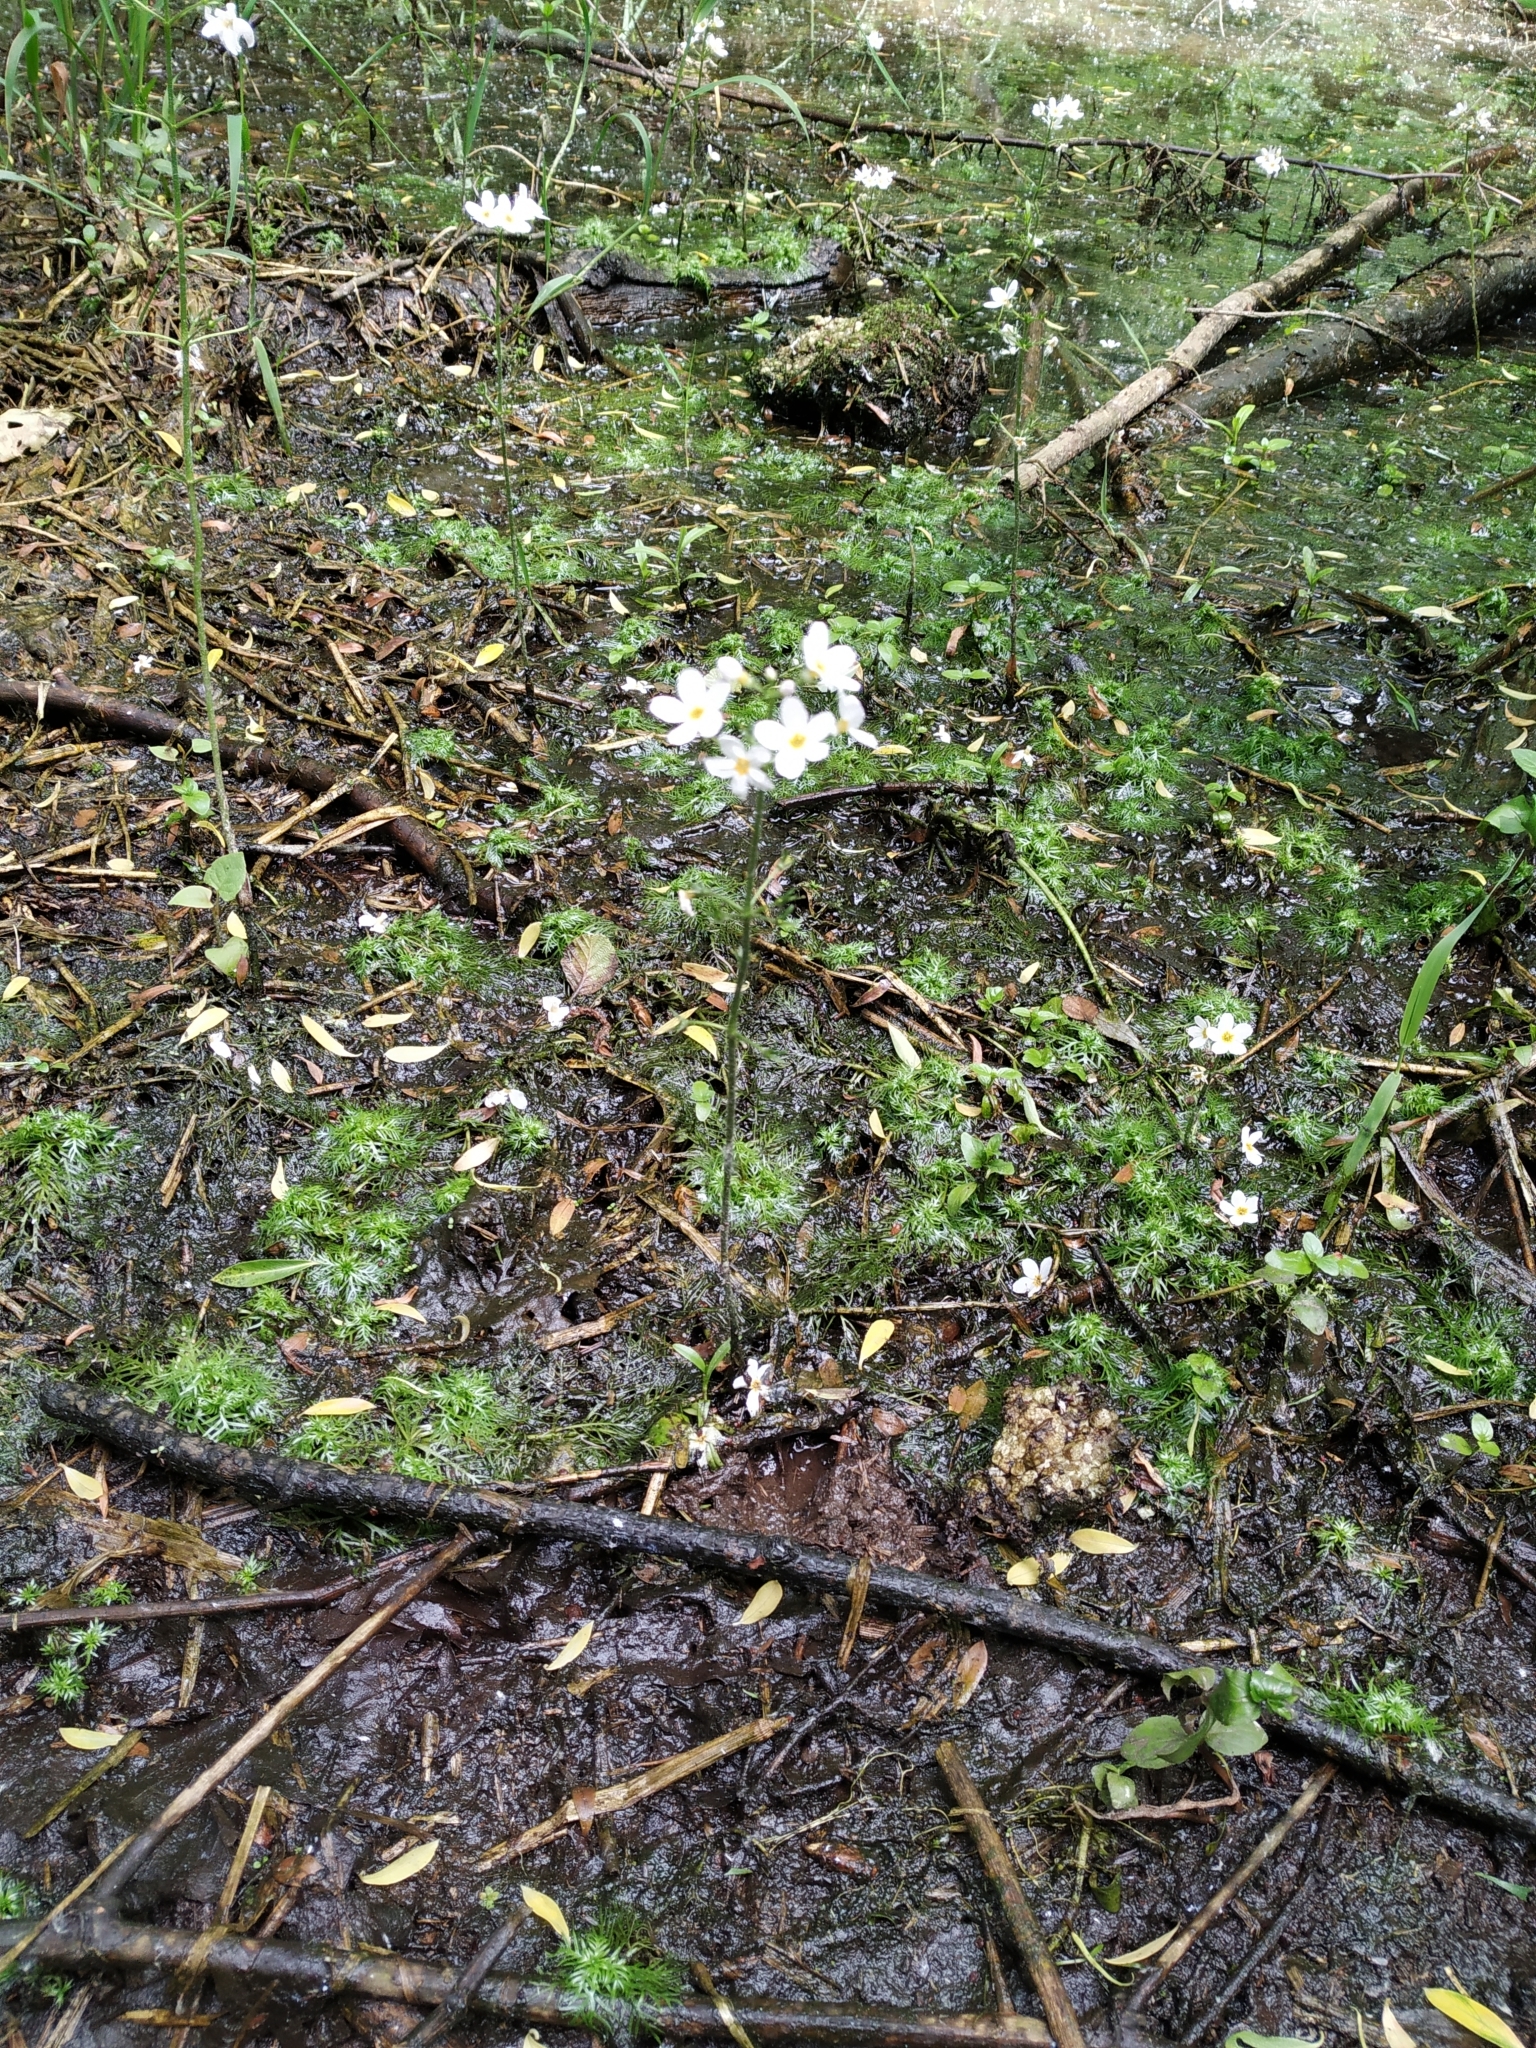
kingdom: Plantae
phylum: Tracheophyta
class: Magnoliopsida
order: Ericales
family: Primulaceae
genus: Hottonia
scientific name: Hottonia palustris
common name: Water-violet
